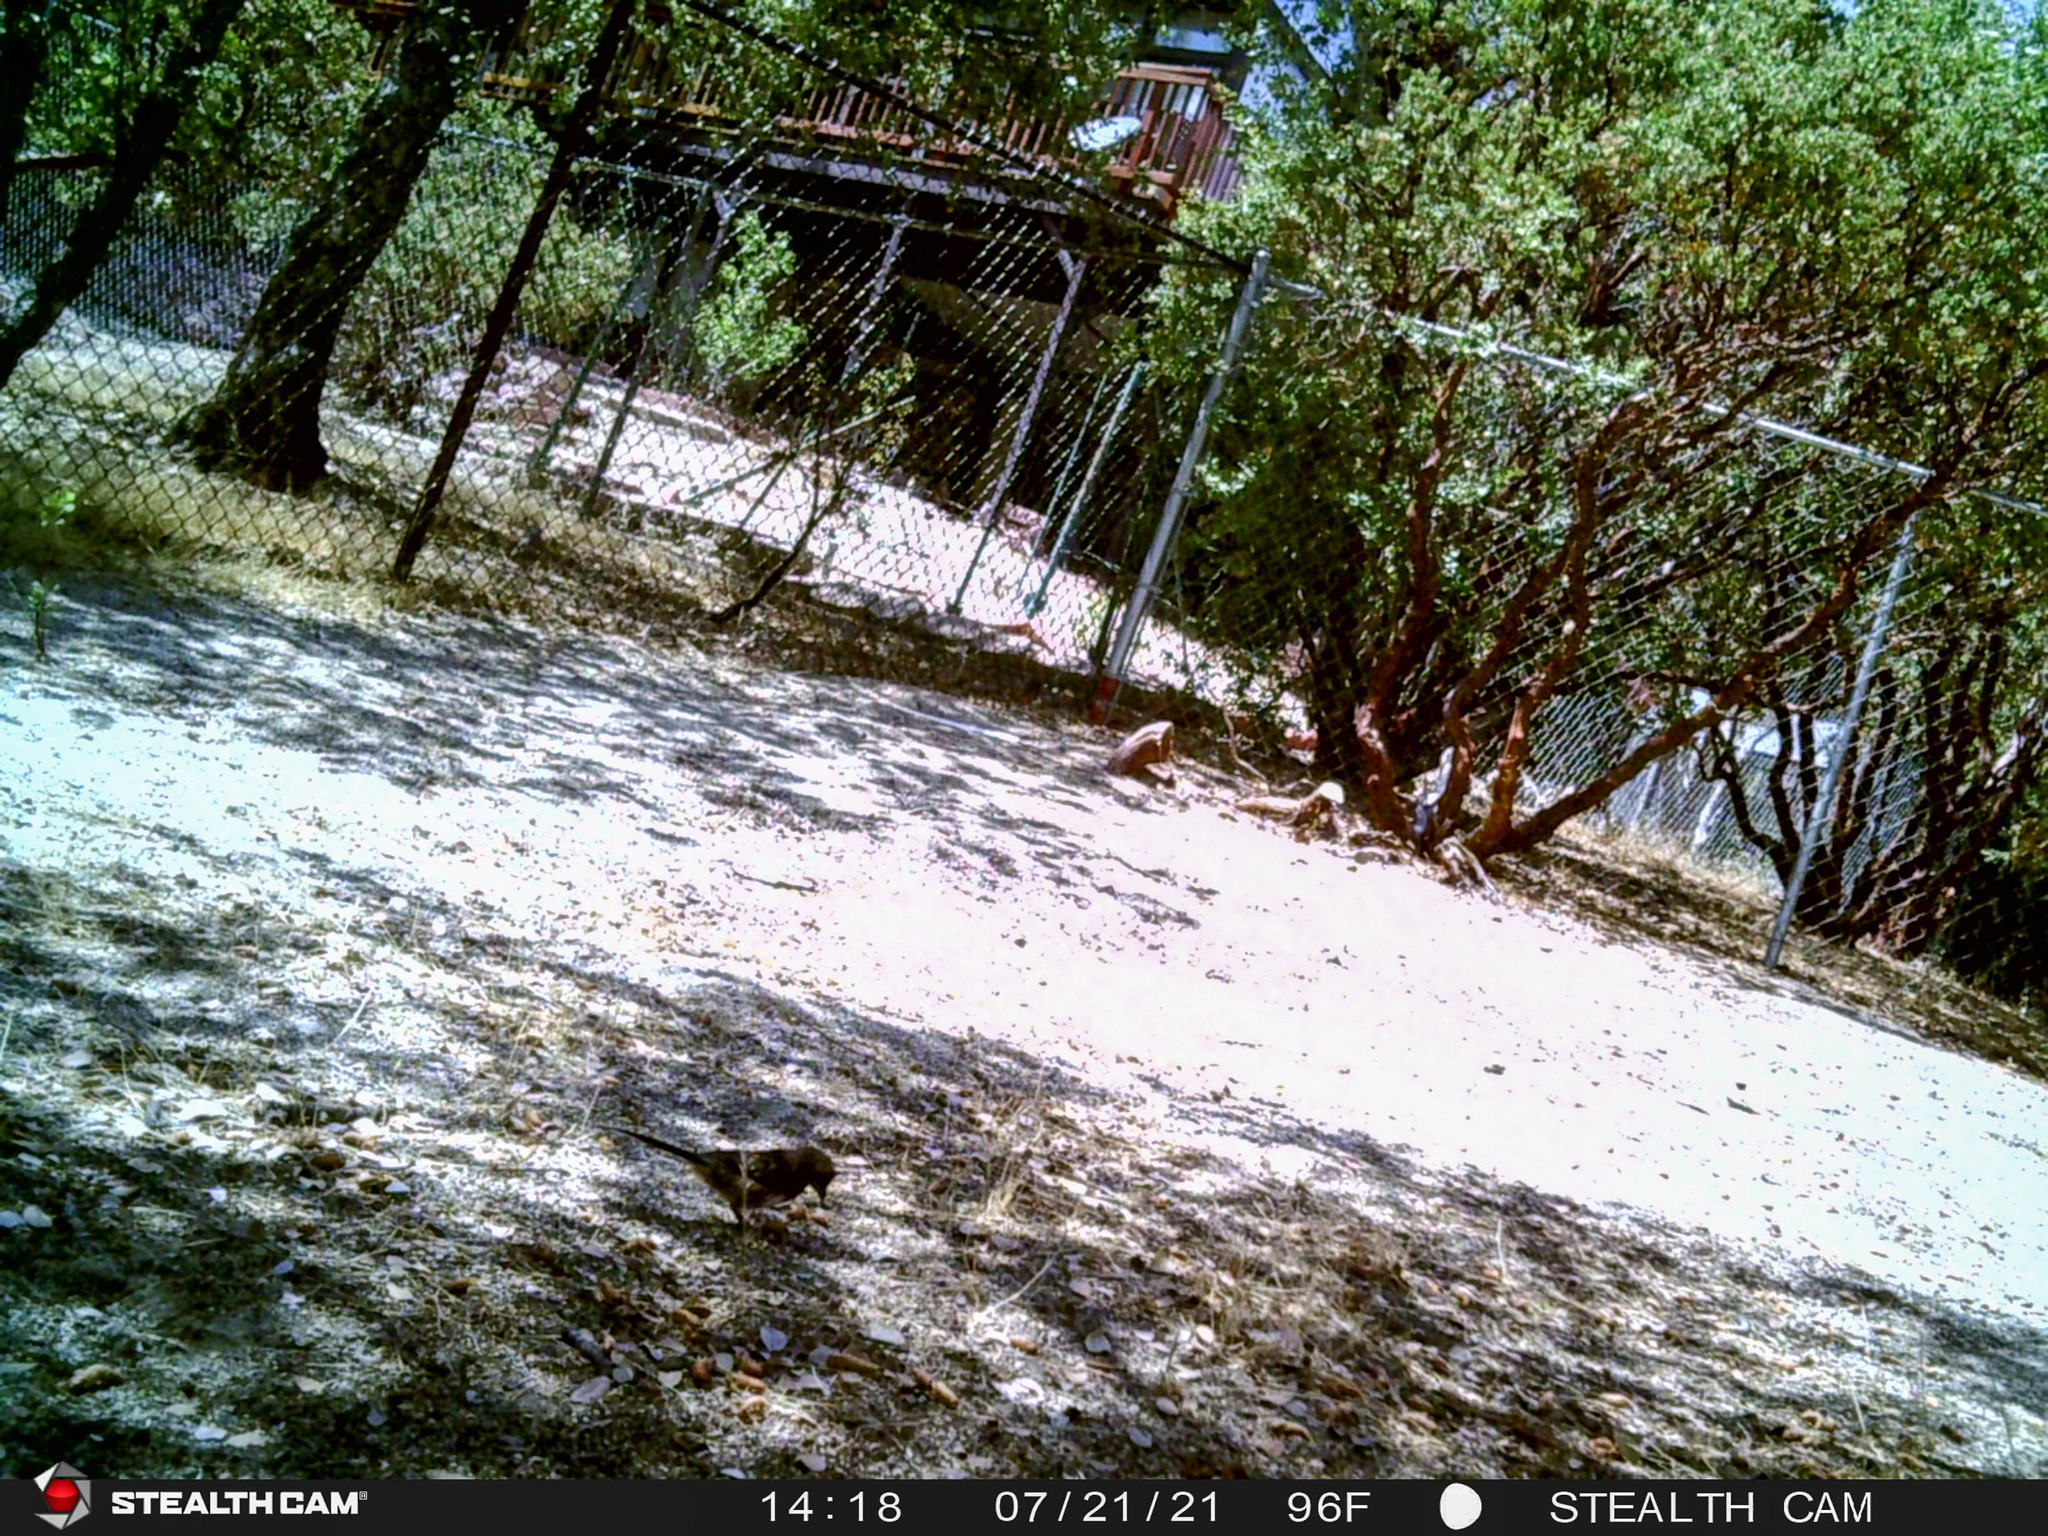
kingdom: Animalia
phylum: Chordata
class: Aves
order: Passeriformes
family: Passerellidae
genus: Pipilo
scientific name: Pipilo maculatus
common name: Spotted towhee
